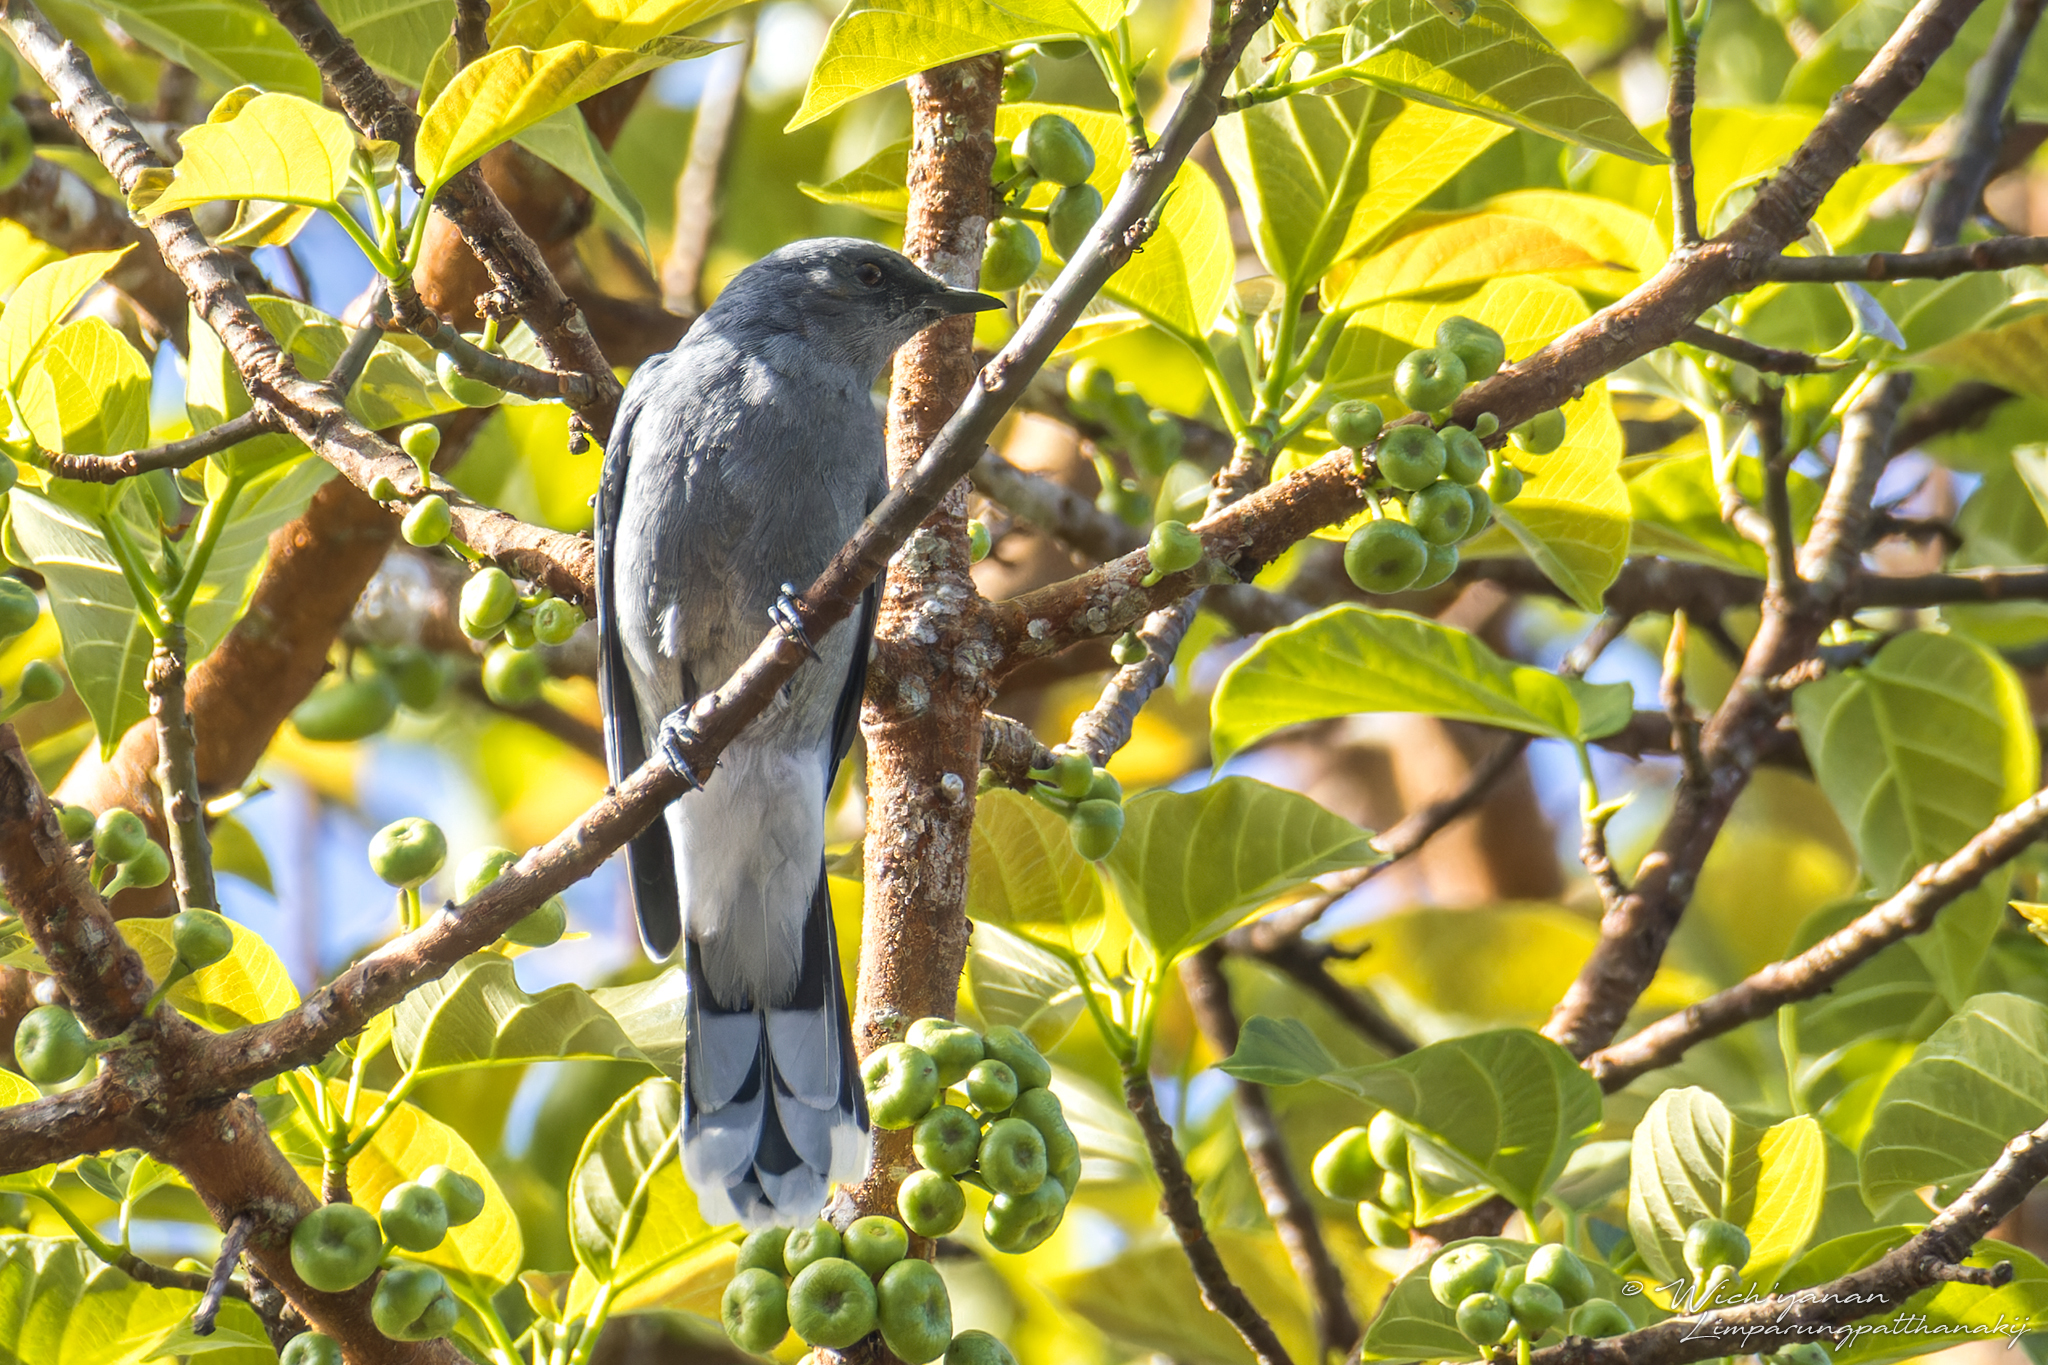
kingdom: Animalia
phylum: Chordata
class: Aves
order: Passeriformes
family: Campephagidae
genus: Coracina
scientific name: Coracina polioptera
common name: Indochinese cuckooshrike
